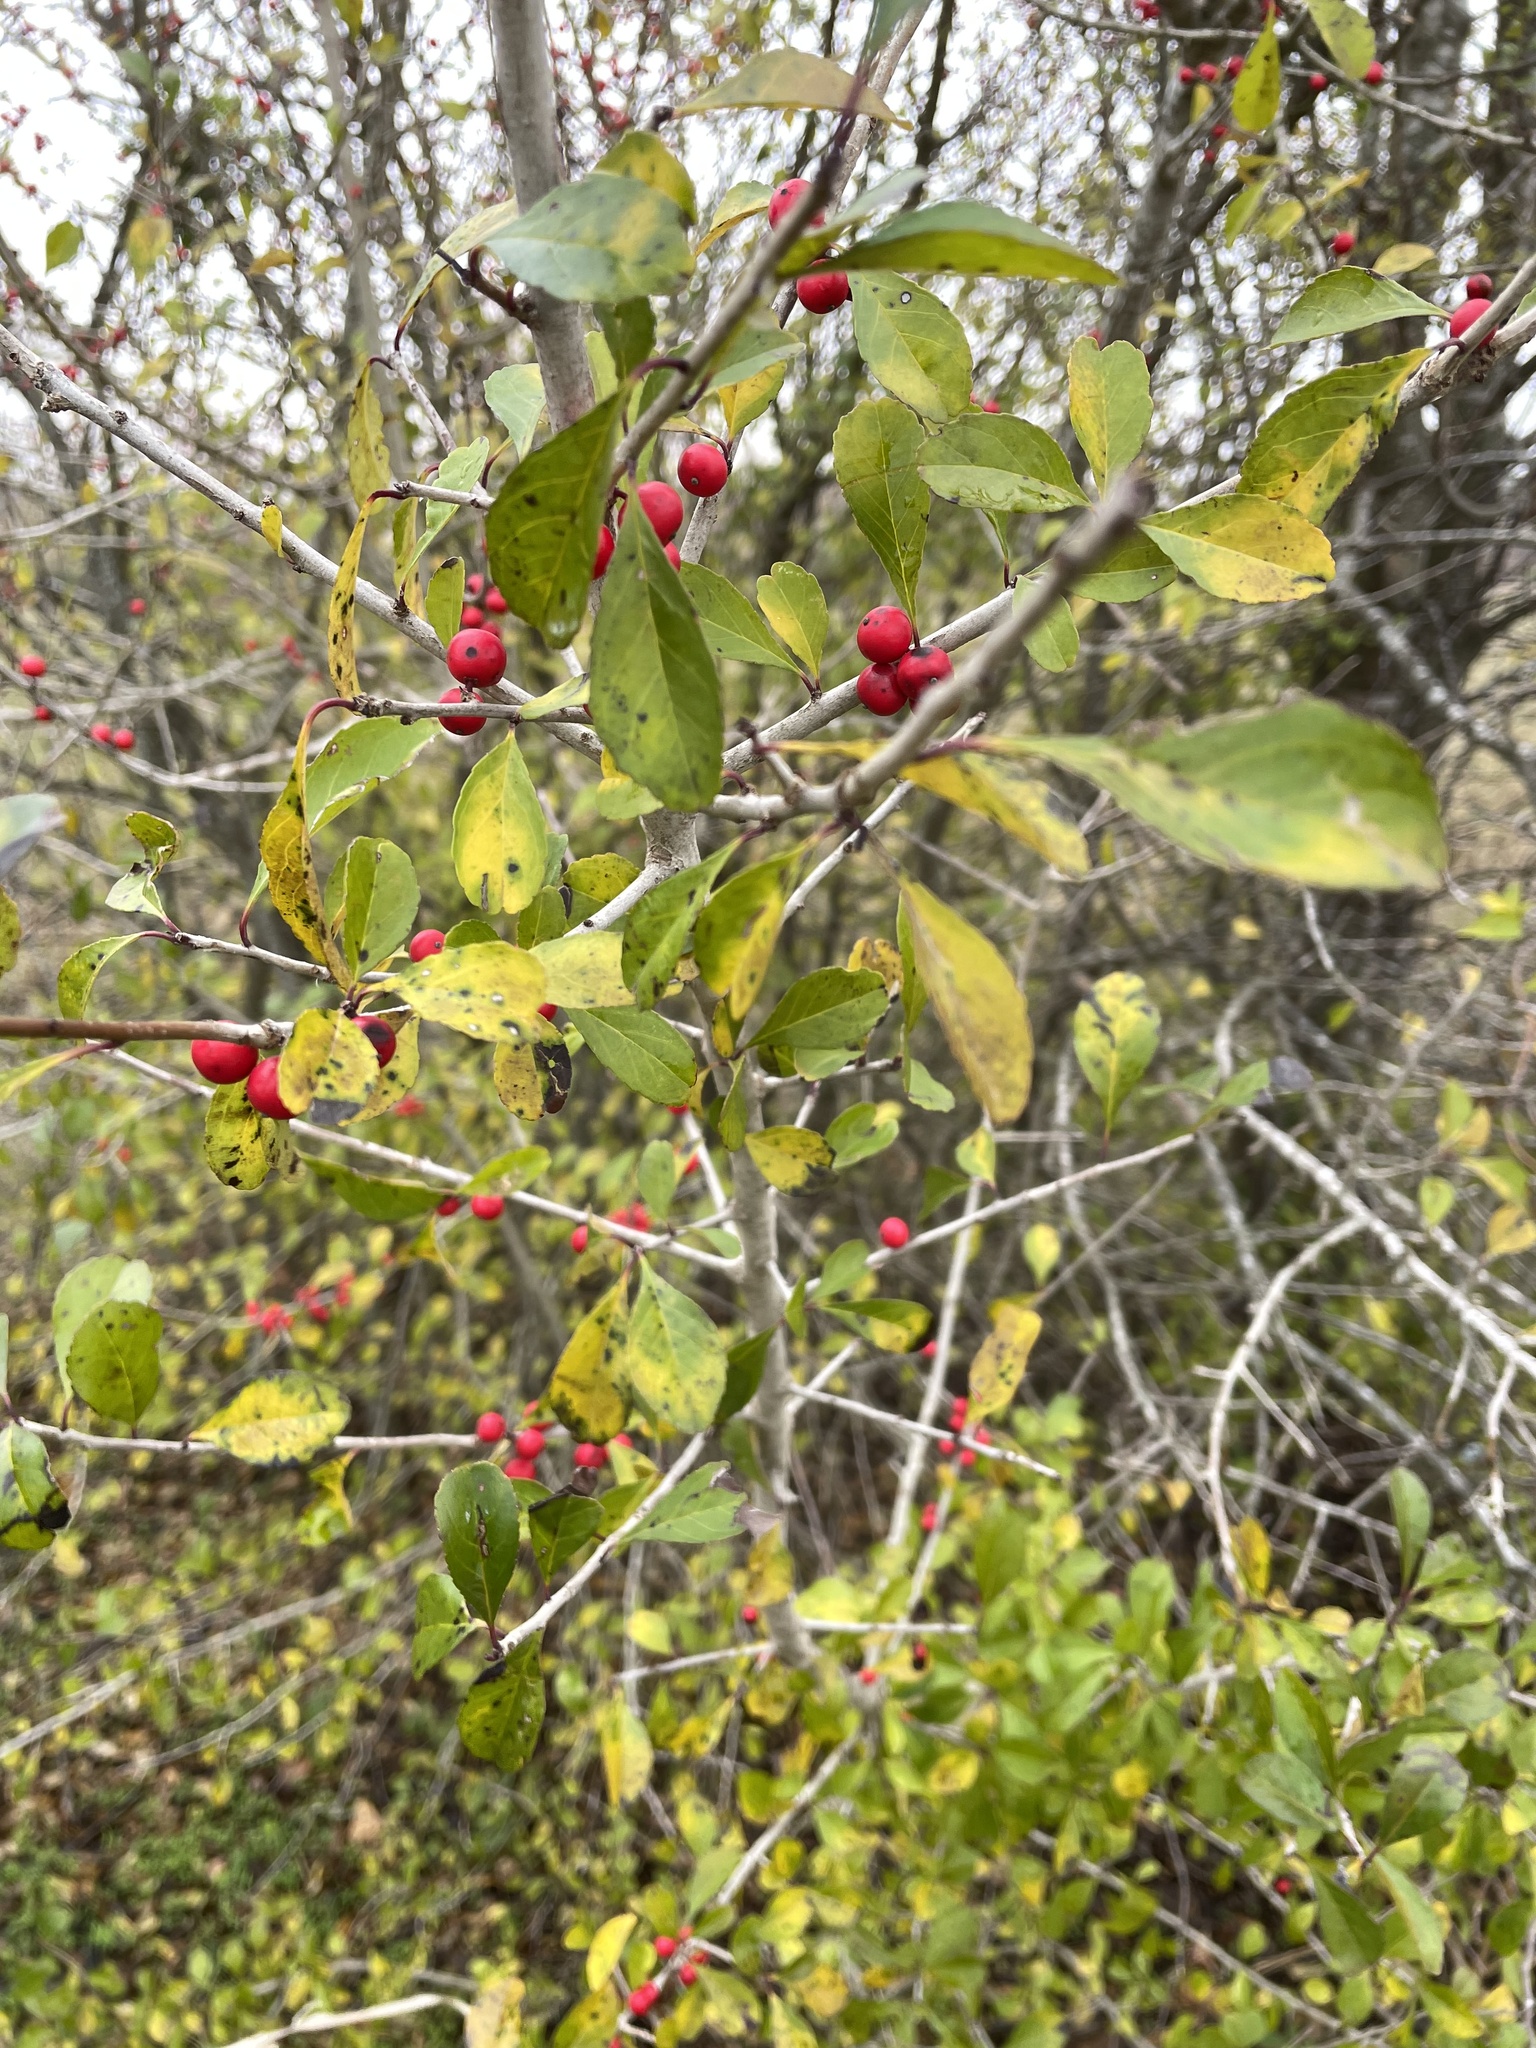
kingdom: Plantae
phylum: Tracheophyta
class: Magnoliopsida
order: Aquifoliales
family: Aquifoliaceae
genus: Ilex
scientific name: Ilex decidua
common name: Possum-haw
